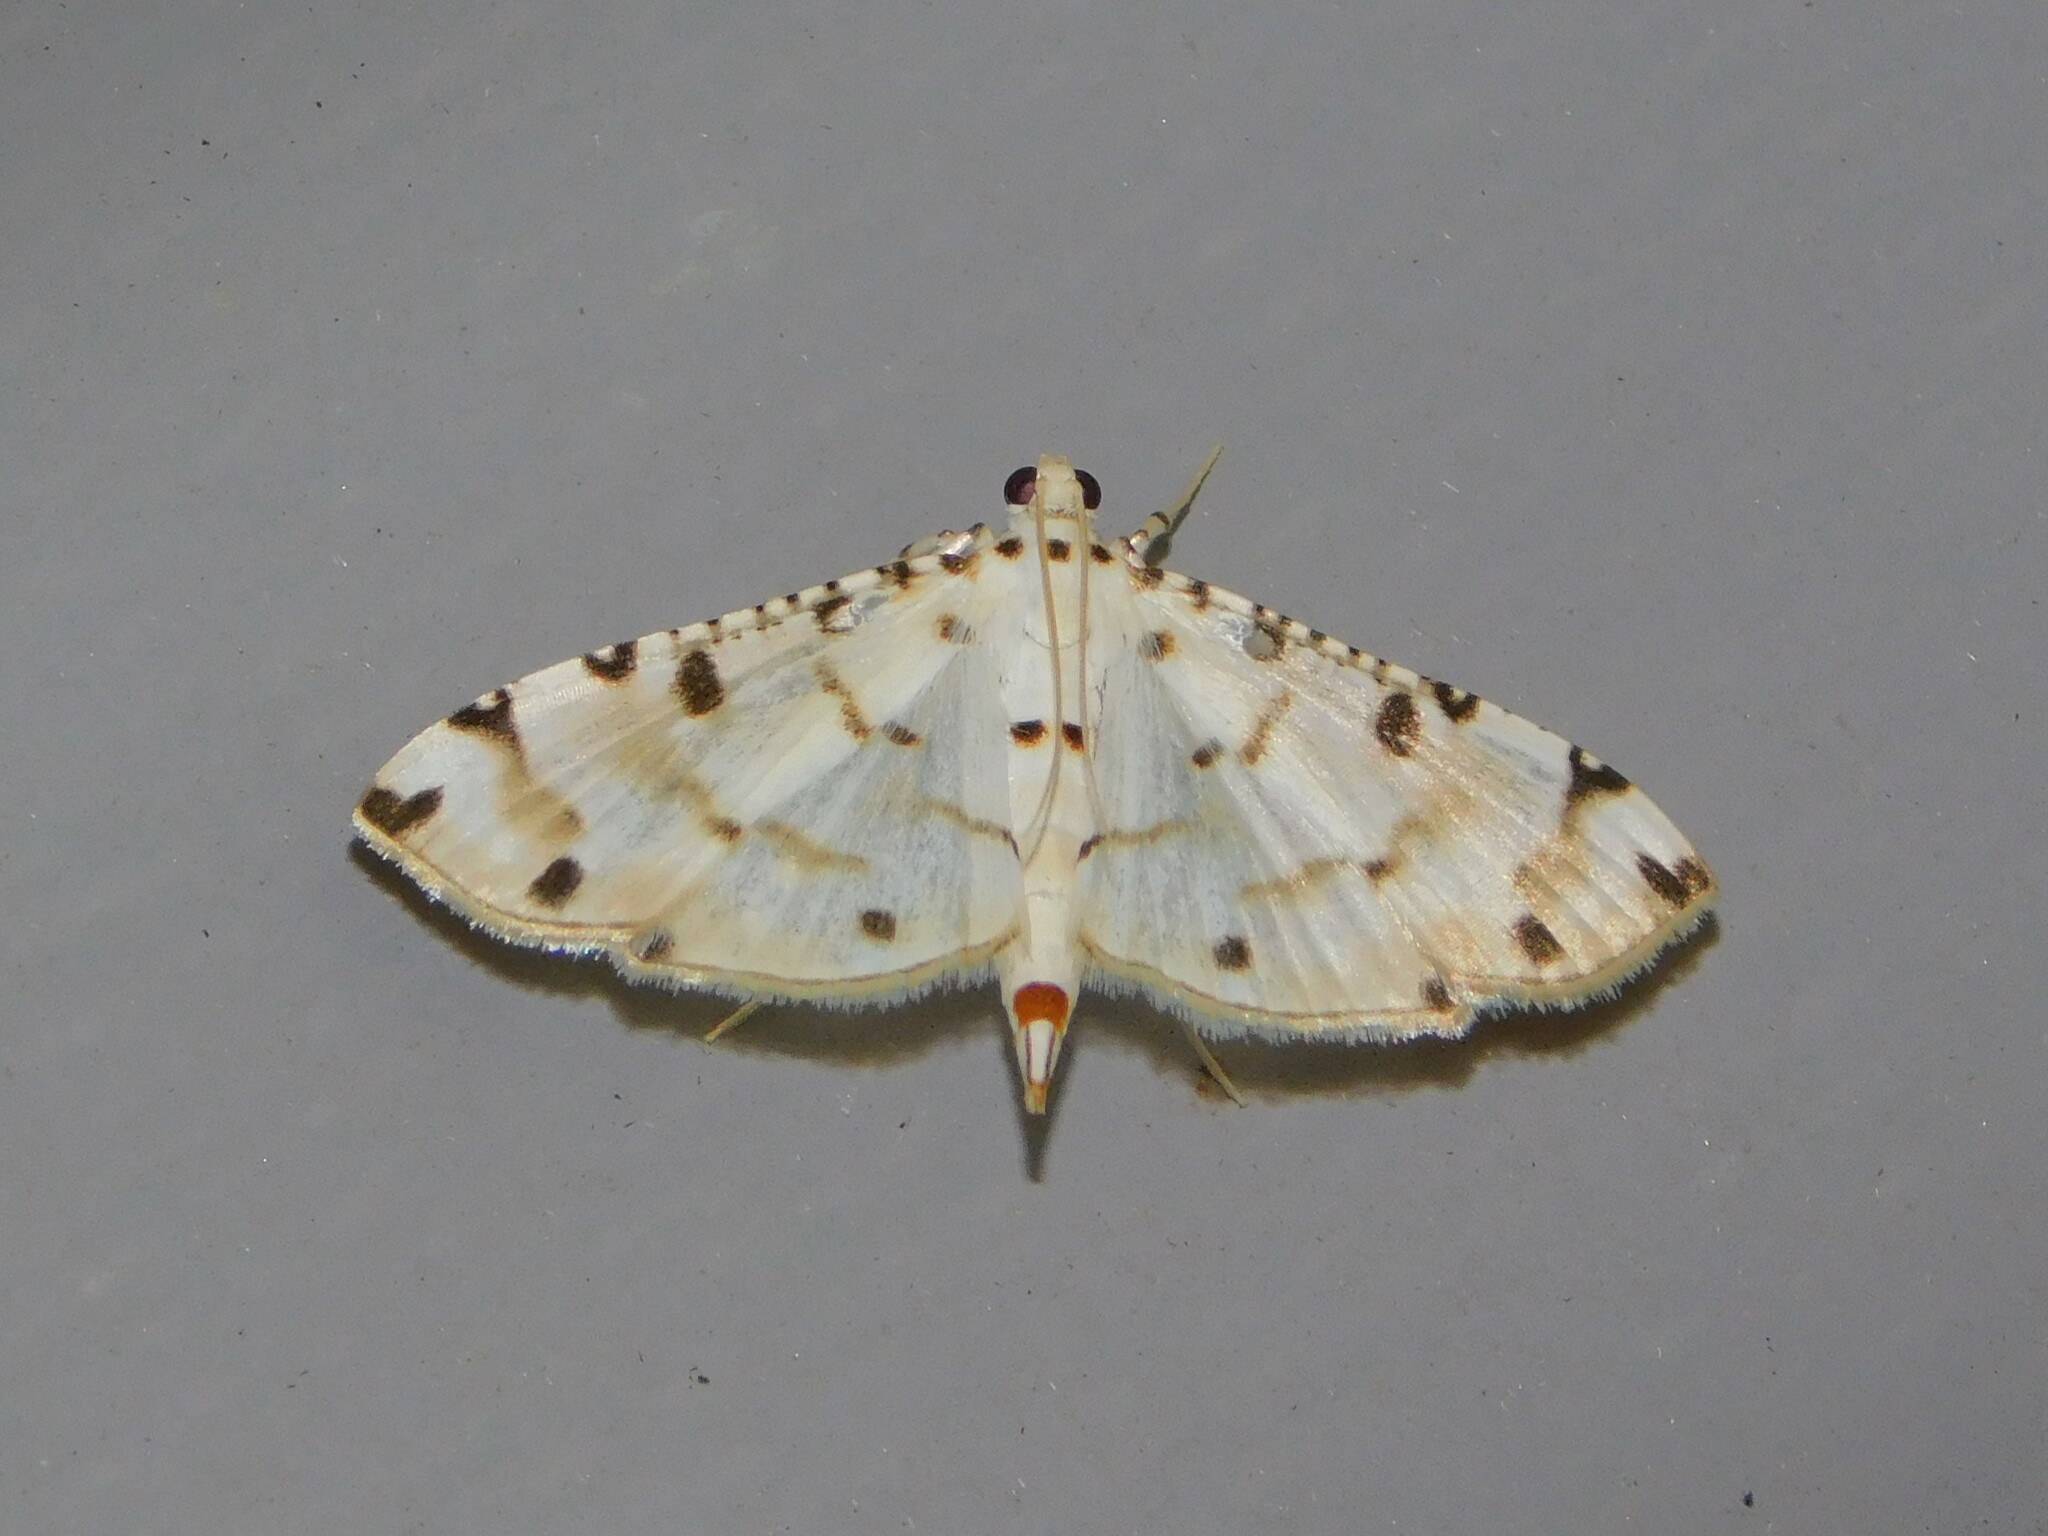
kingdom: Animalia
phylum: Arthropoda
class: Insecta
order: Lepidoptera
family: Crambidae
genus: Pycnarmon
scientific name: Pycnarmon cribrata
